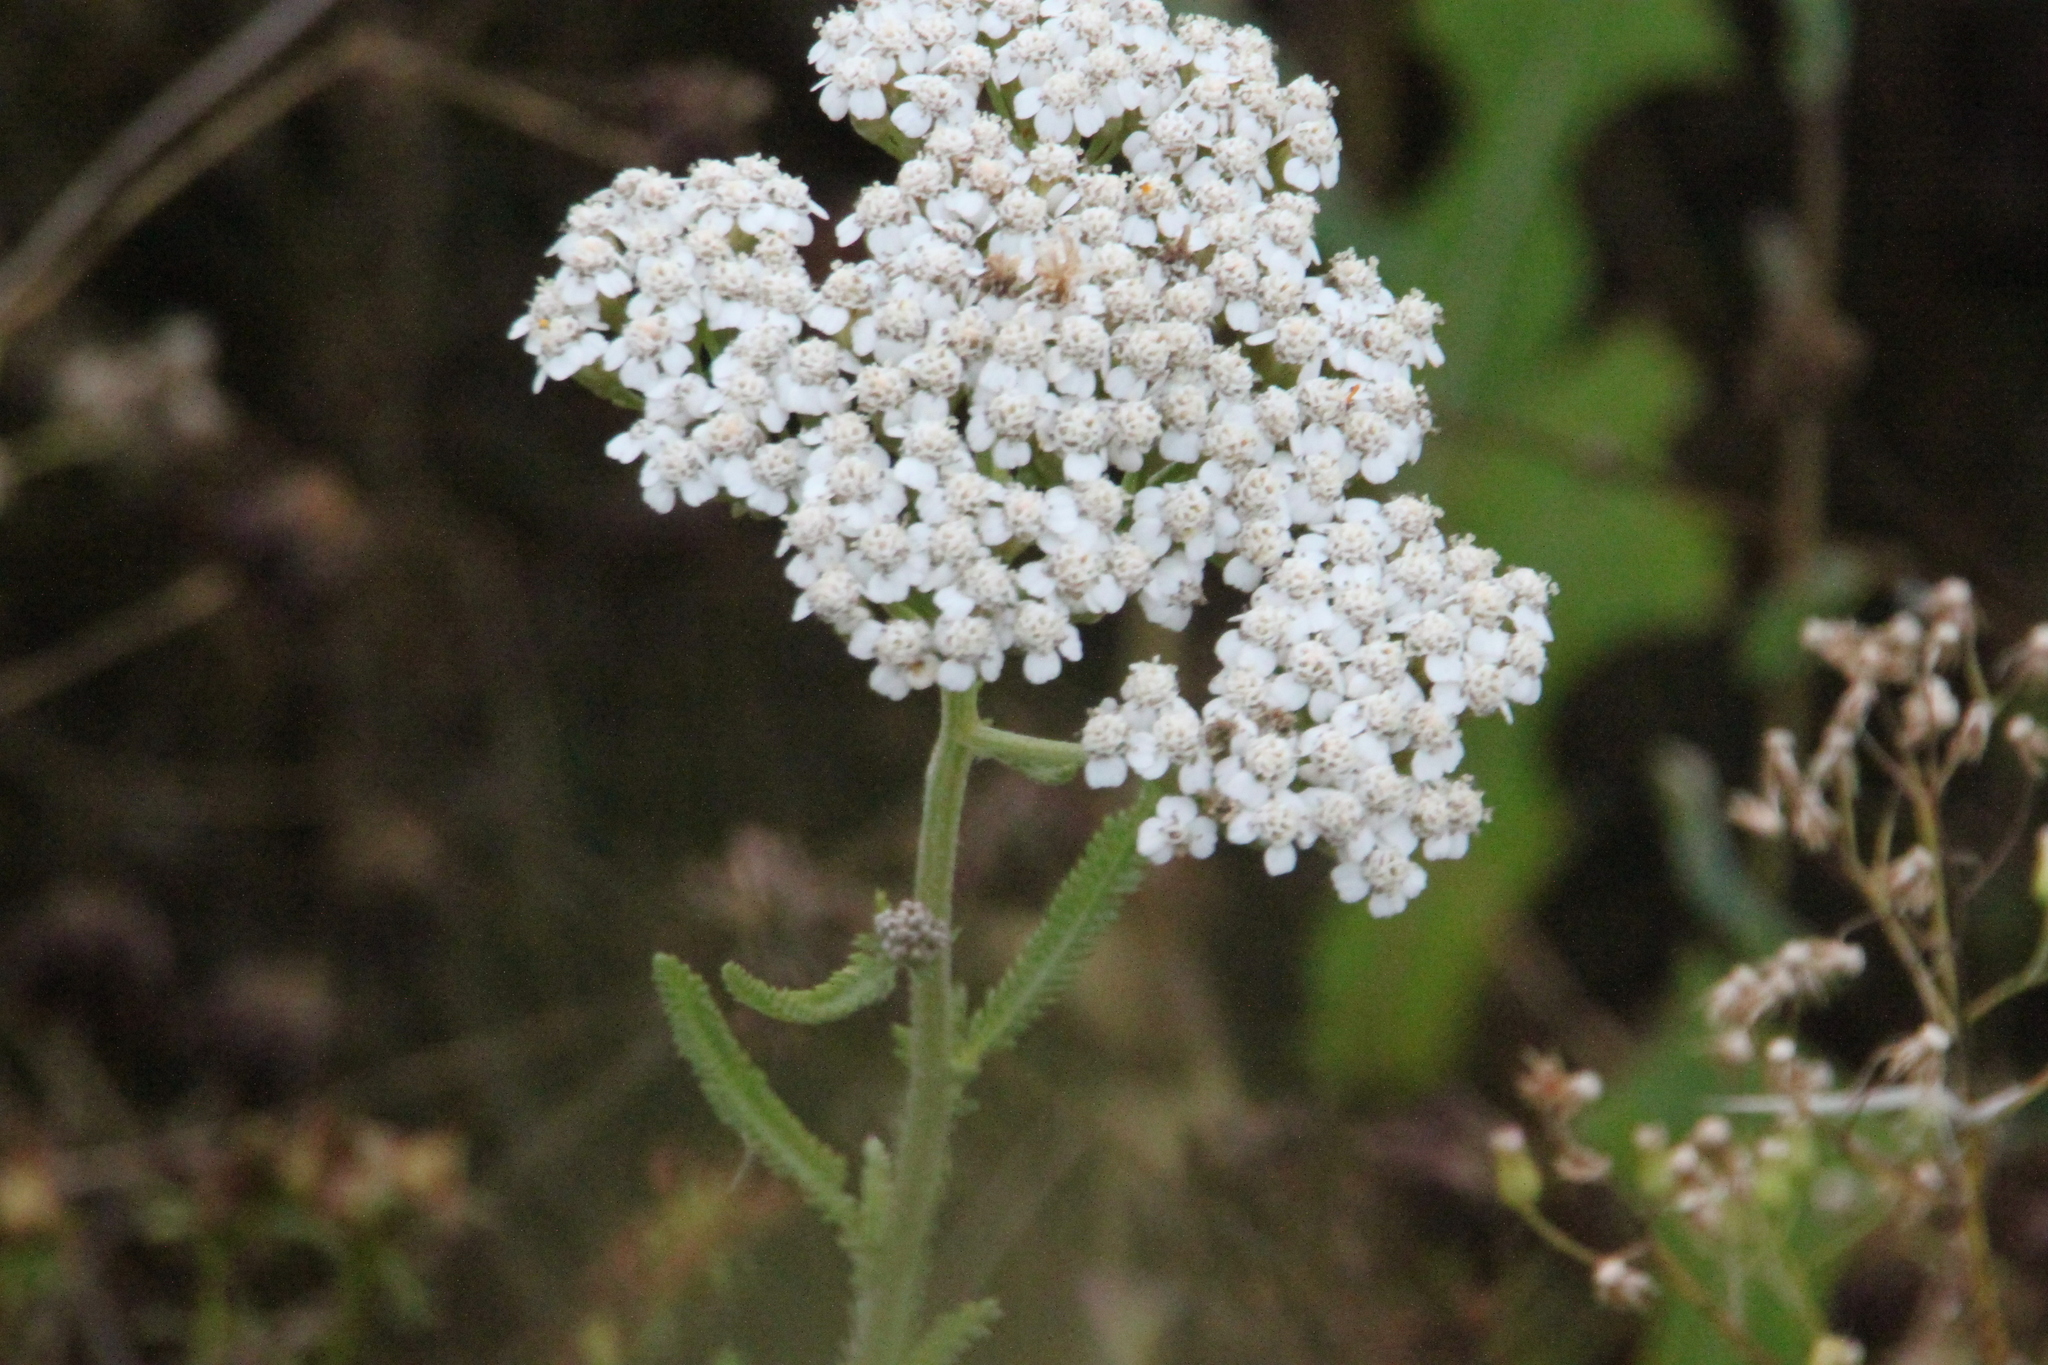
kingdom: Plantae
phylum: Tracheophyta
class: Magnoliopsida
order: Asterales
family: Asteraceae
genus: Achillea
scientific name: Achillea millefolium
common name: Yarrow
